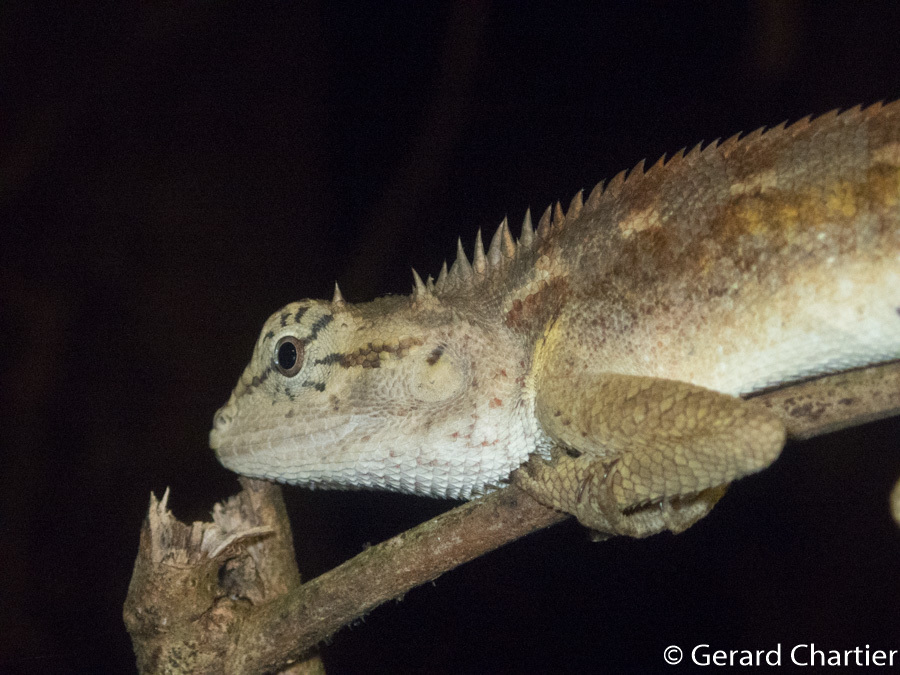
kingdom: Animalia
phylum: Chordata
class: Squamata
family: Agamidae
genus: Calotes
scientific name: Calotes emma
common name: Thailand bloodsucker
